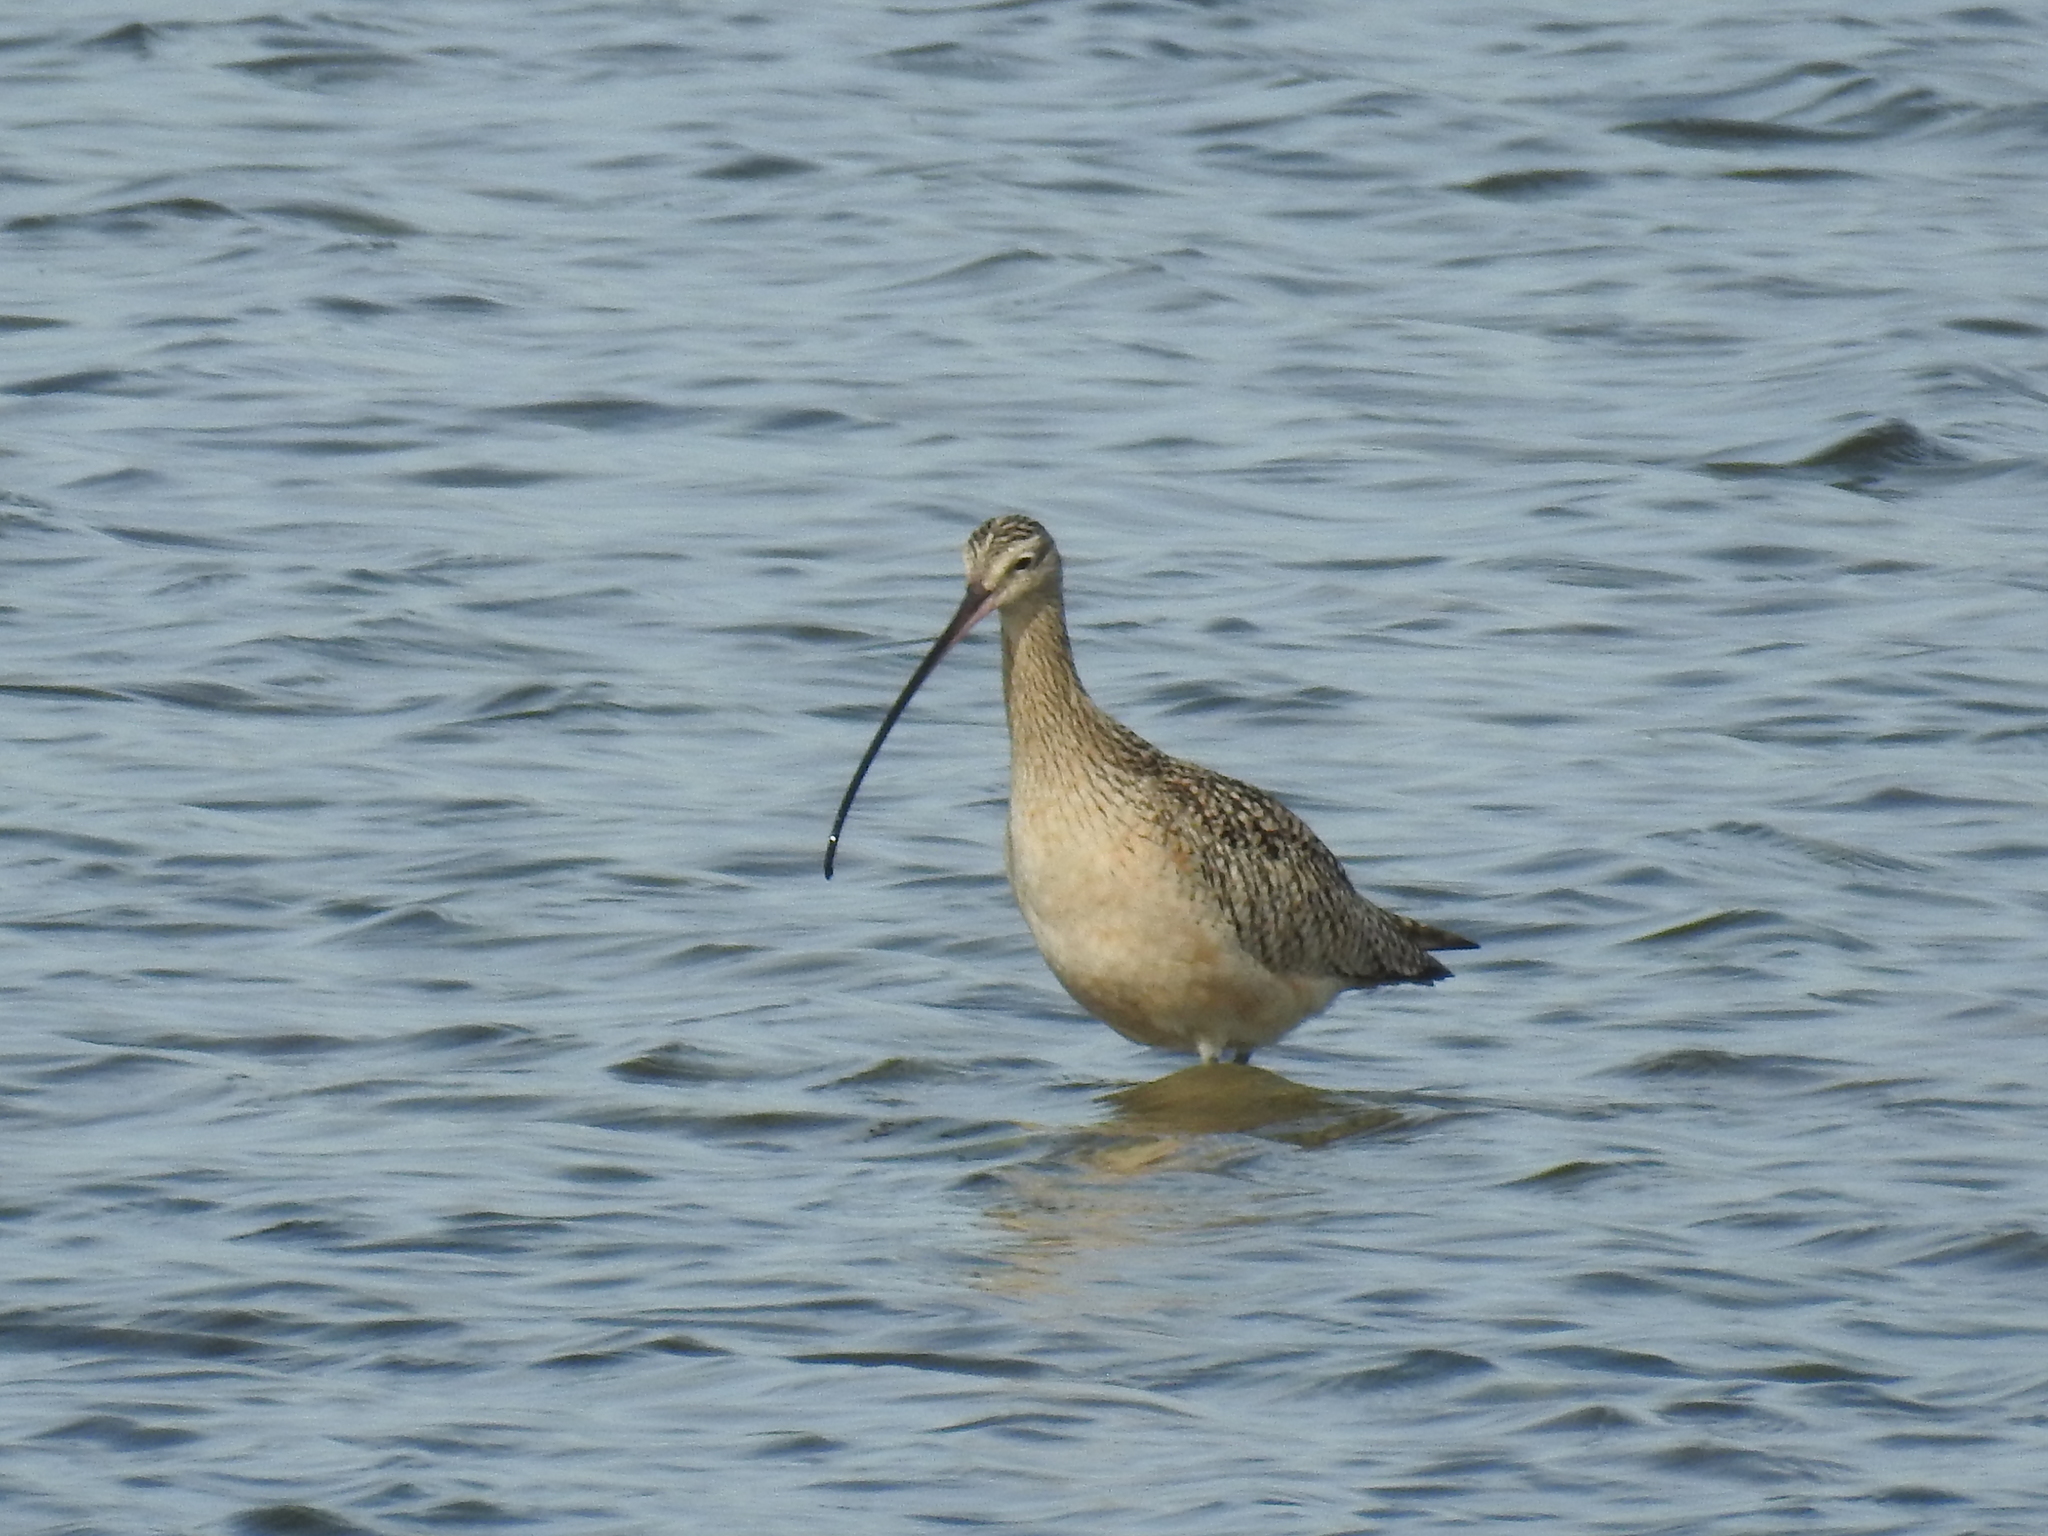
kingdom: Animalia
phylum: Chordata
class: Aves
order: Charadriiformes
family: Scolopacidae
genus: Numenius
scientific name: Numenius americanus
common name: Long-billed curlew
